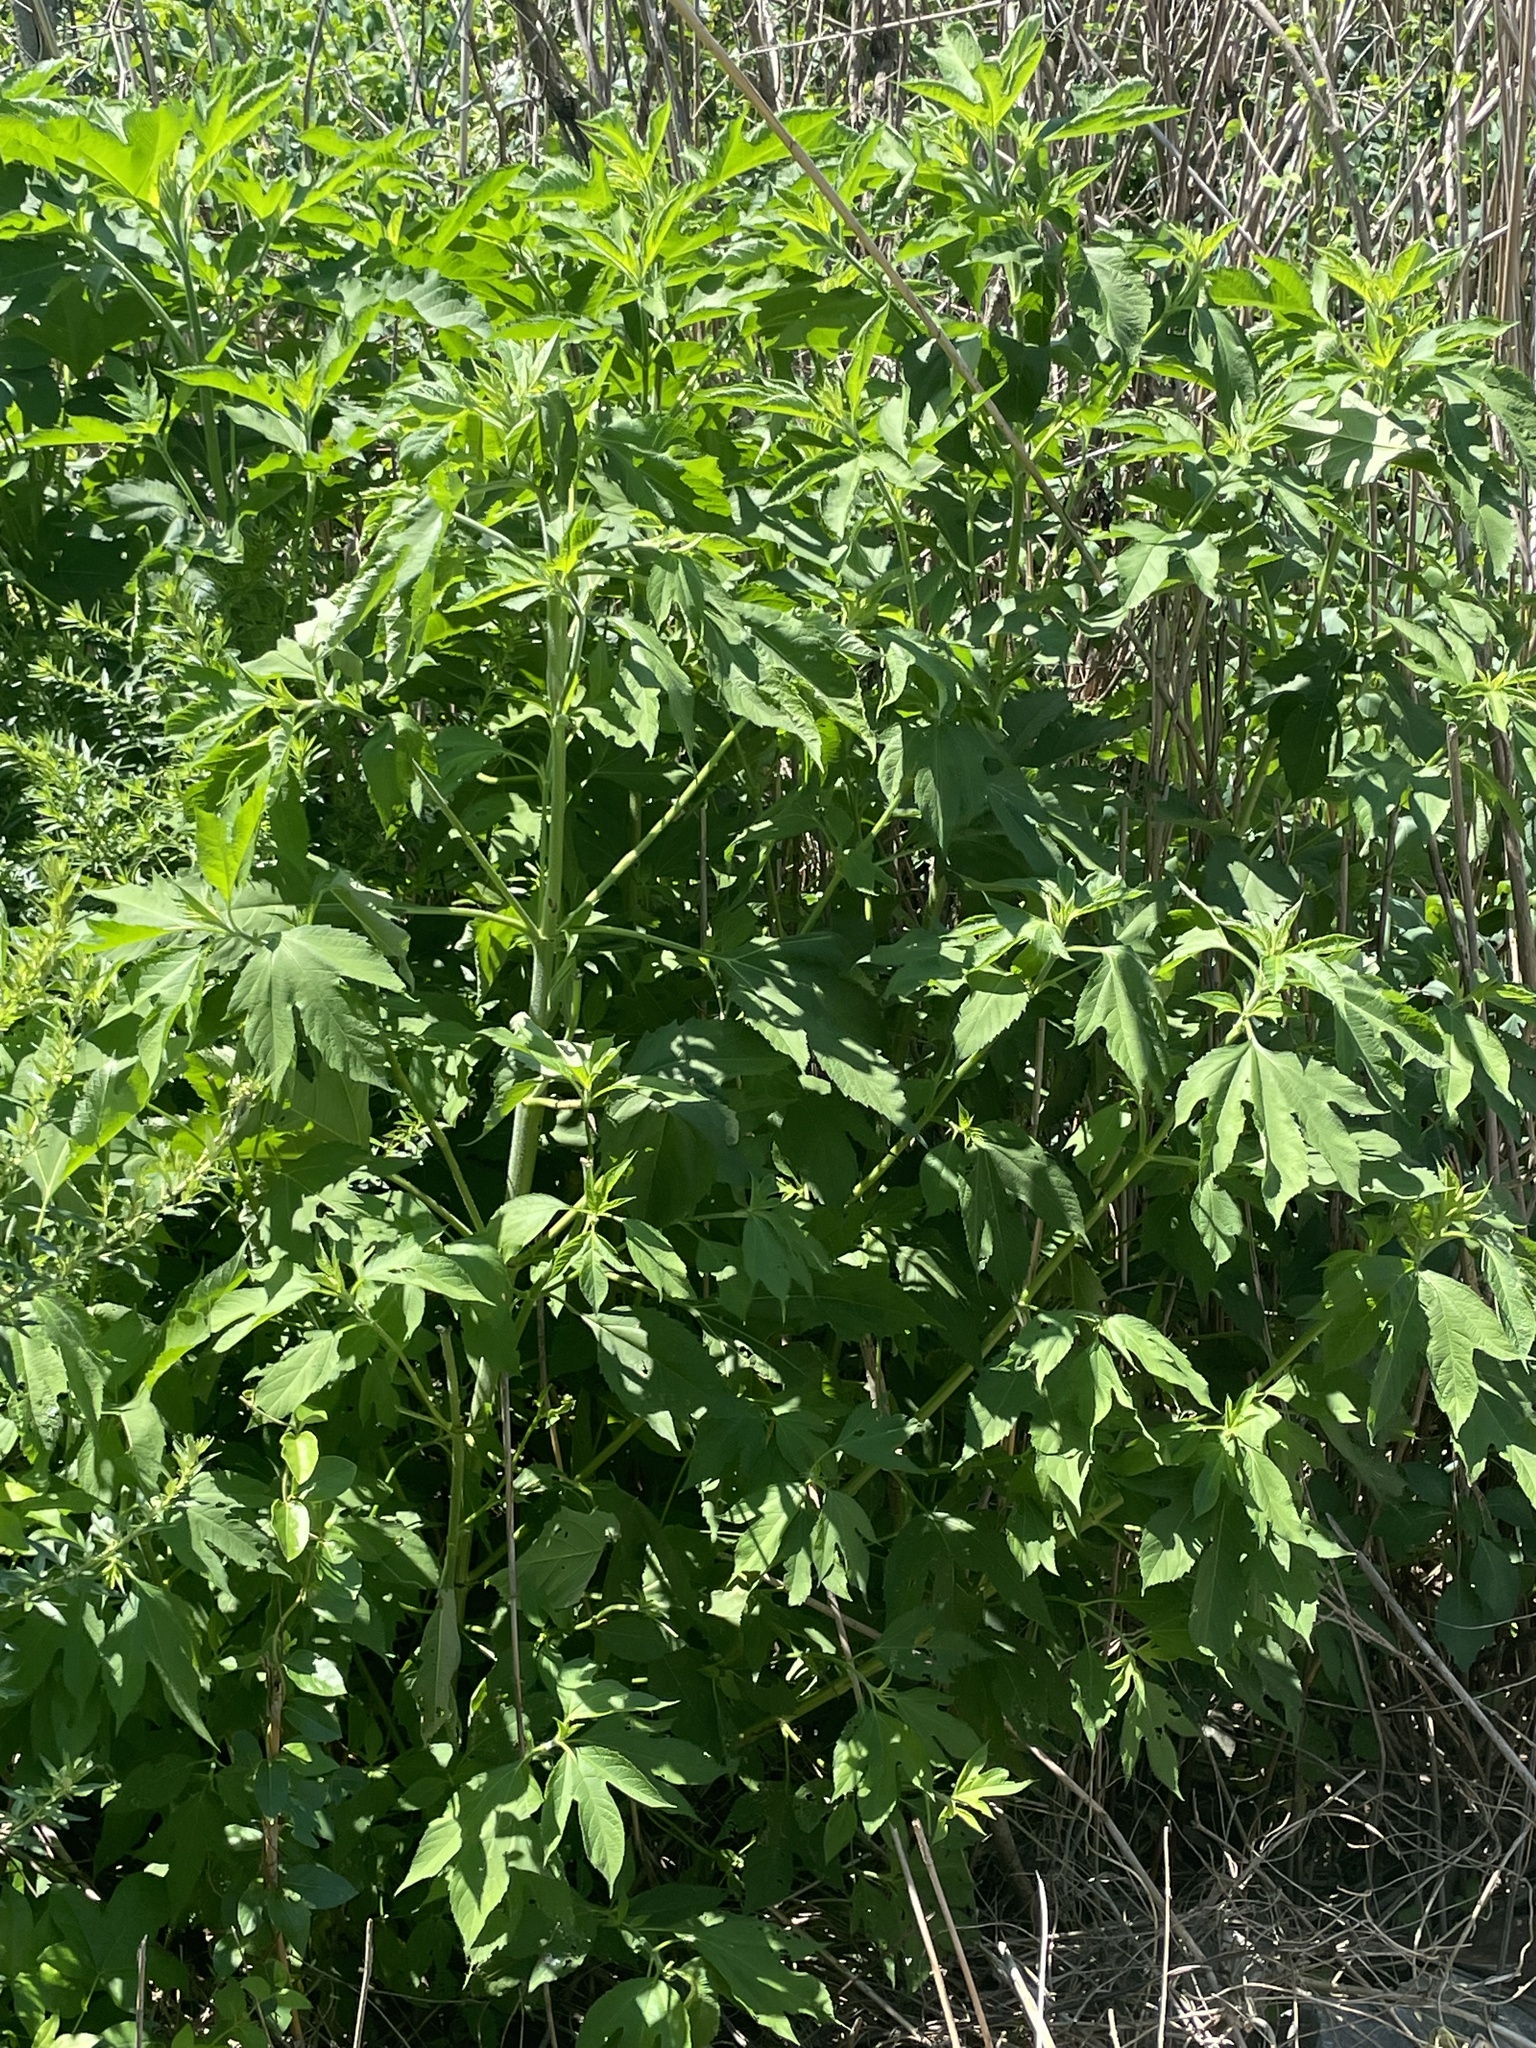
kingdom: Plantae
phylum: Tracheophyta
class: Magnoliopsida
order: Asterales
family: Asteraceae
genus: Ambrosia
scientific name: Ambrosia trifida
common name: Giant ragweed
